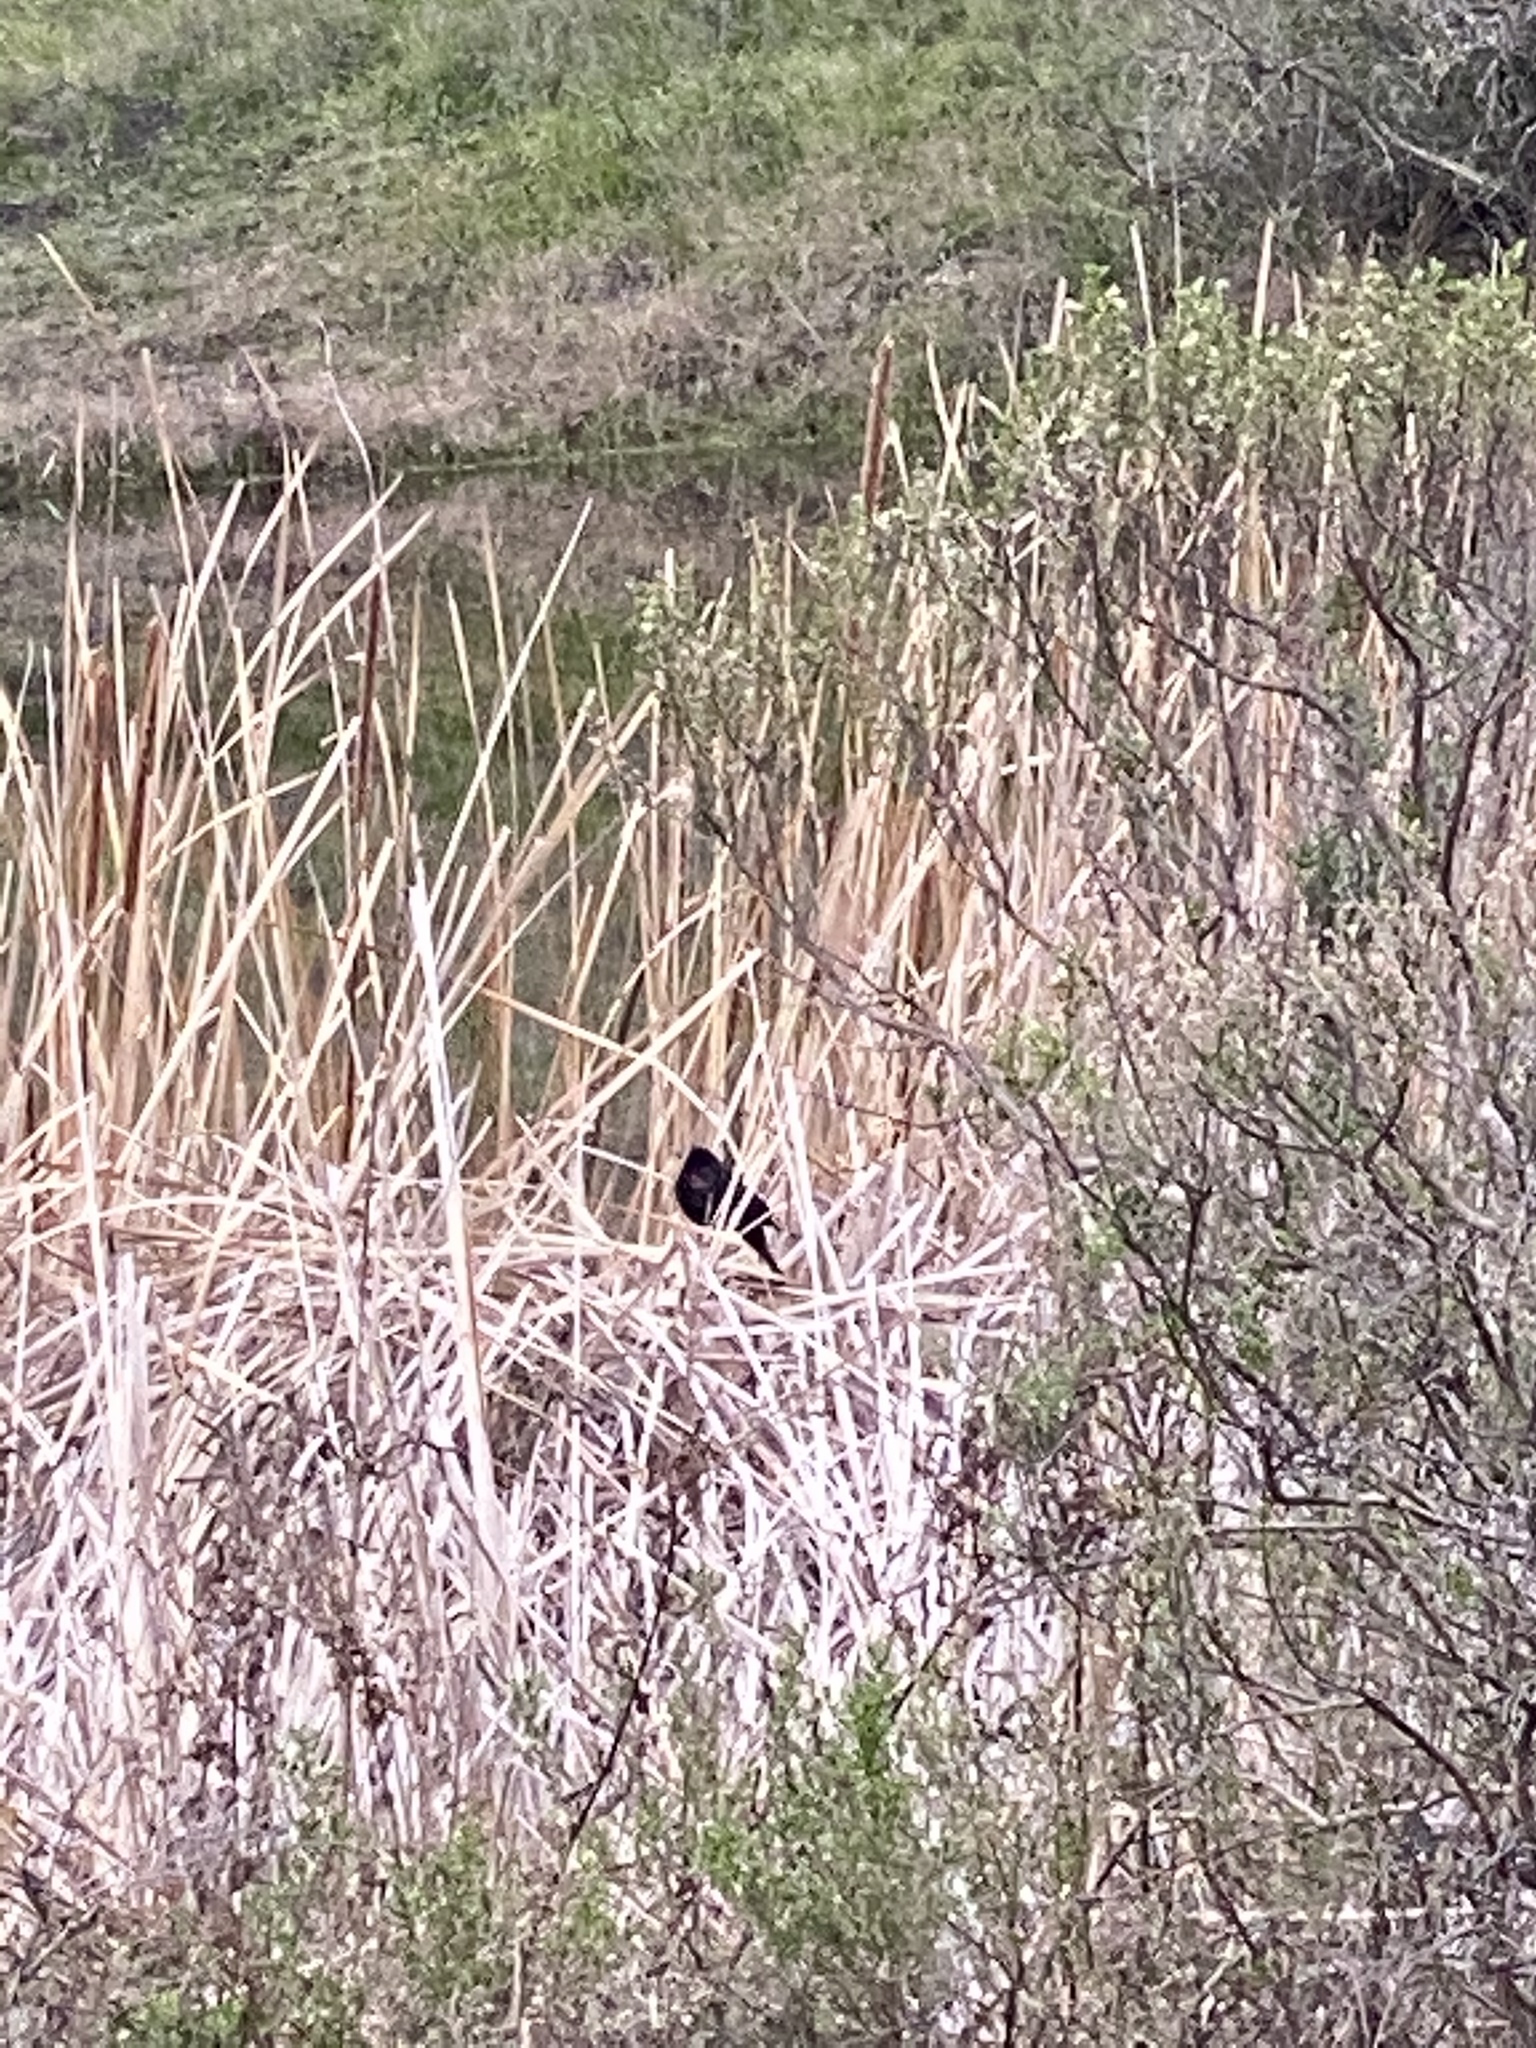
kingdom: Animalia
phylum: Chordata
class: Aves
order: Passeriformes
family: Icteridae
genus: Agelaius
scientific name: Agelaius phoeniceus
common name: Red-winged blackbird
